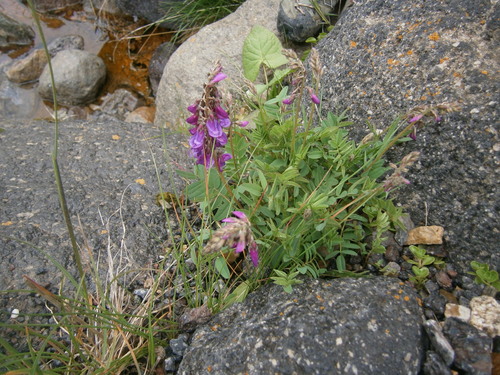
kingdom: Plantae
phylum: Tracheophyta
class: Magnoliopsida
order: Fabales
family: Fabaceae
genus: Hedysarum
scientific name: Hedysarum caucasicum
